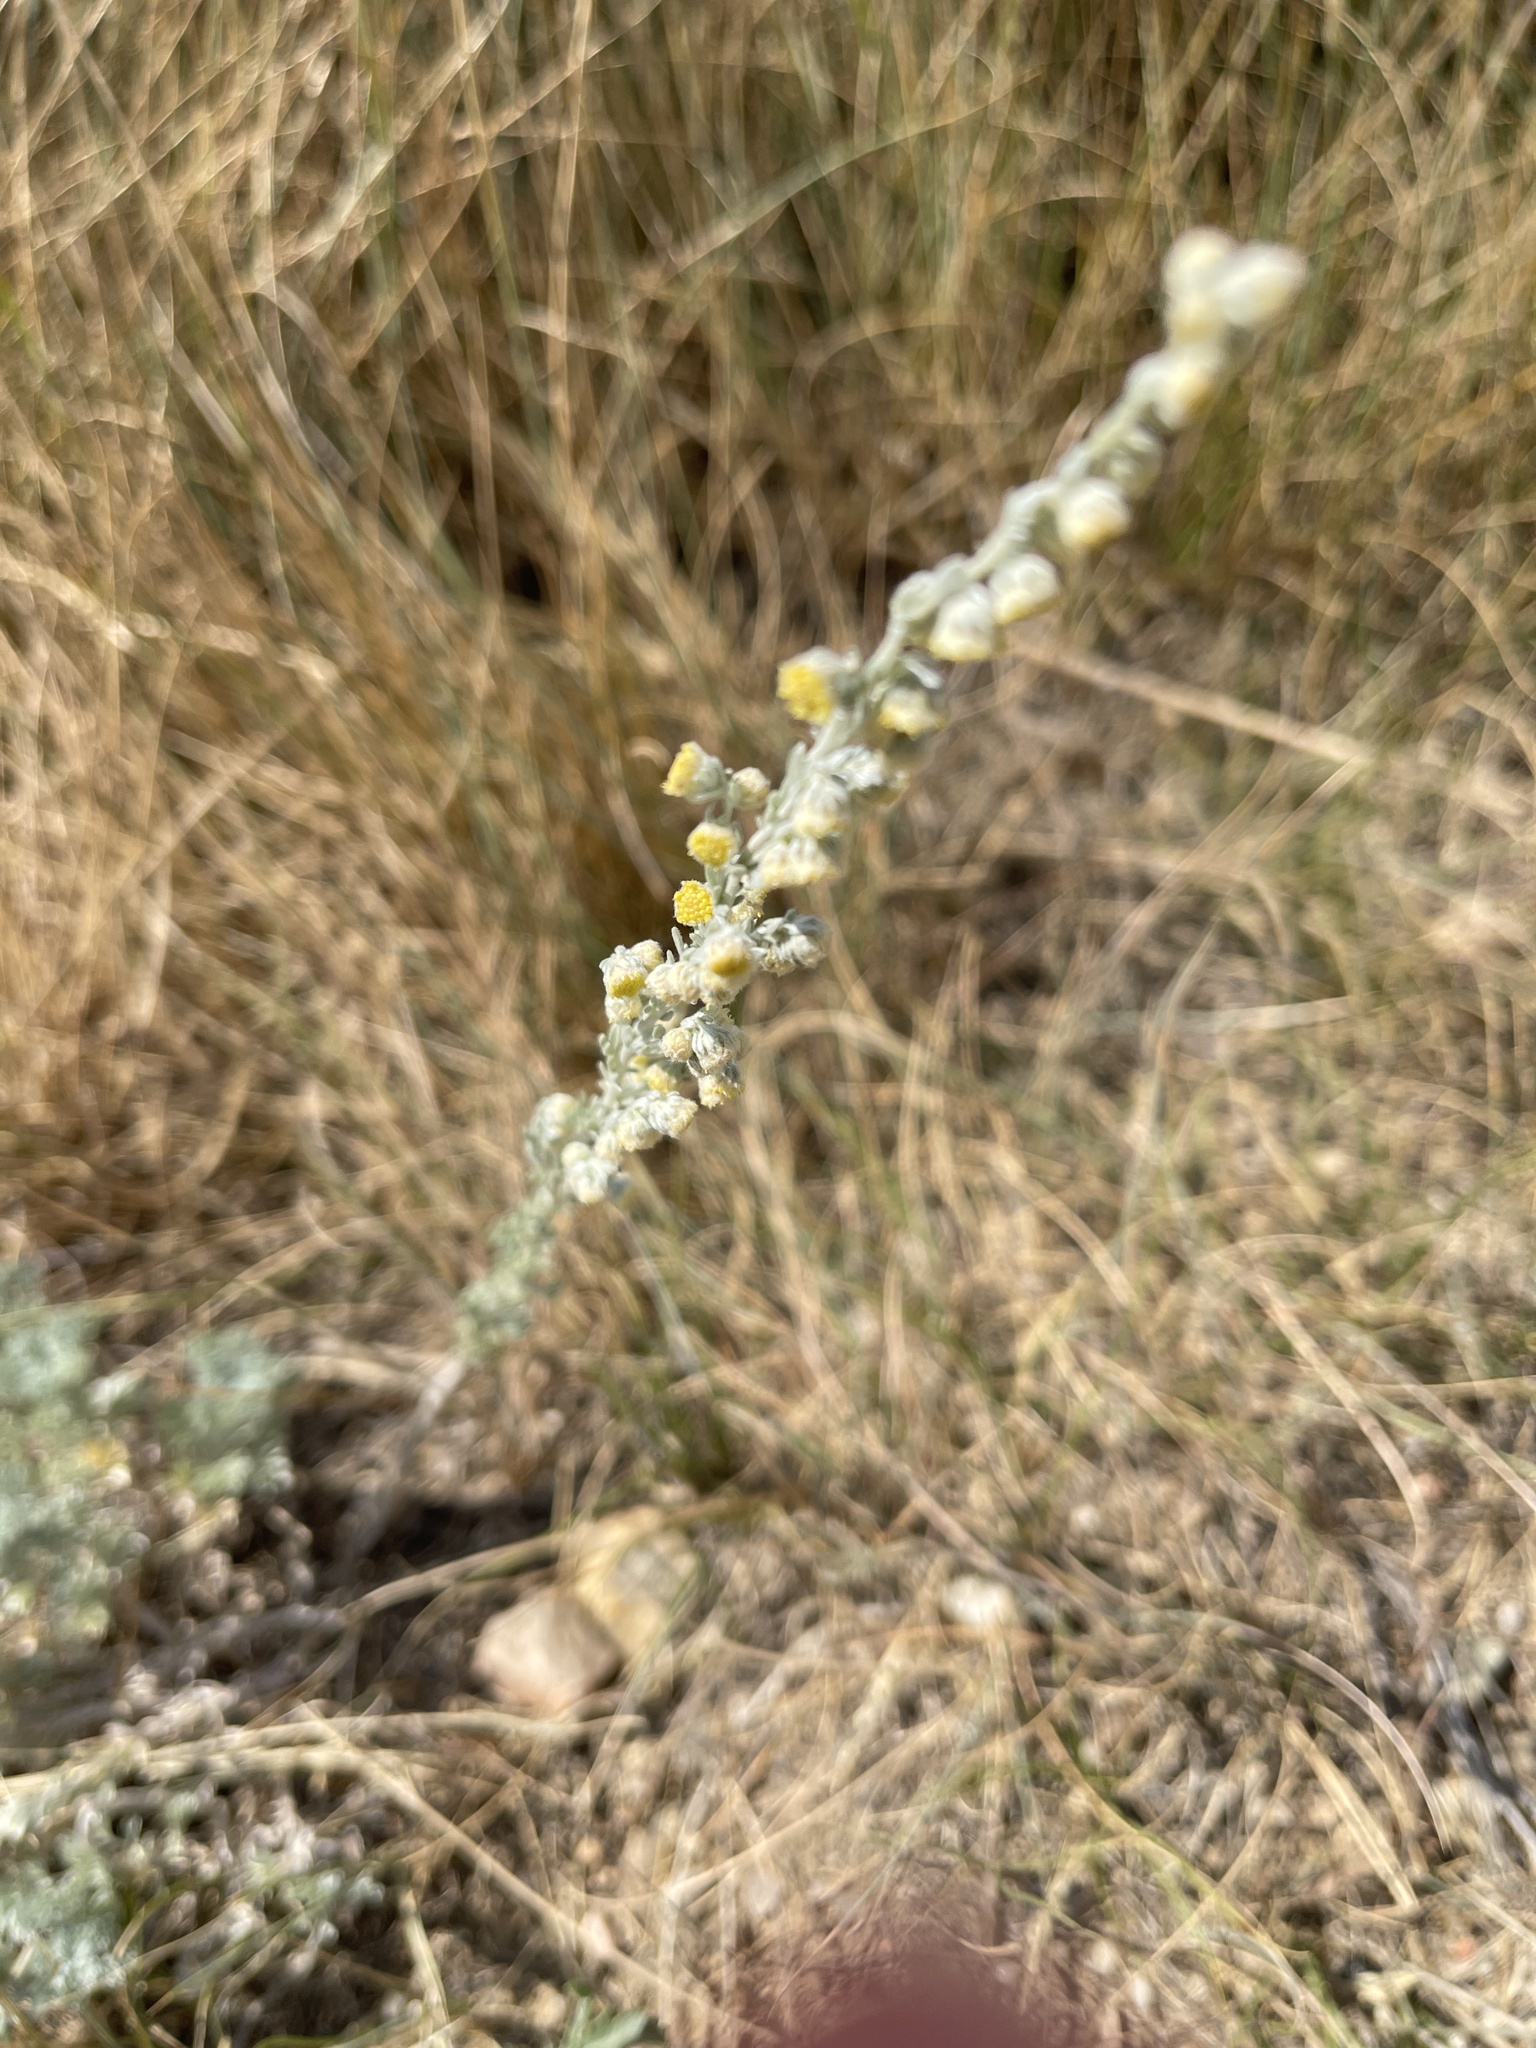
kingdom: Plantae
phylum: Tracheophyta
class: Magnoliopsida
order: Asterales
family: Asteraceae
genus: Artemisia
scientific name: Artemisia frigida
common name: Prairie sagewort
